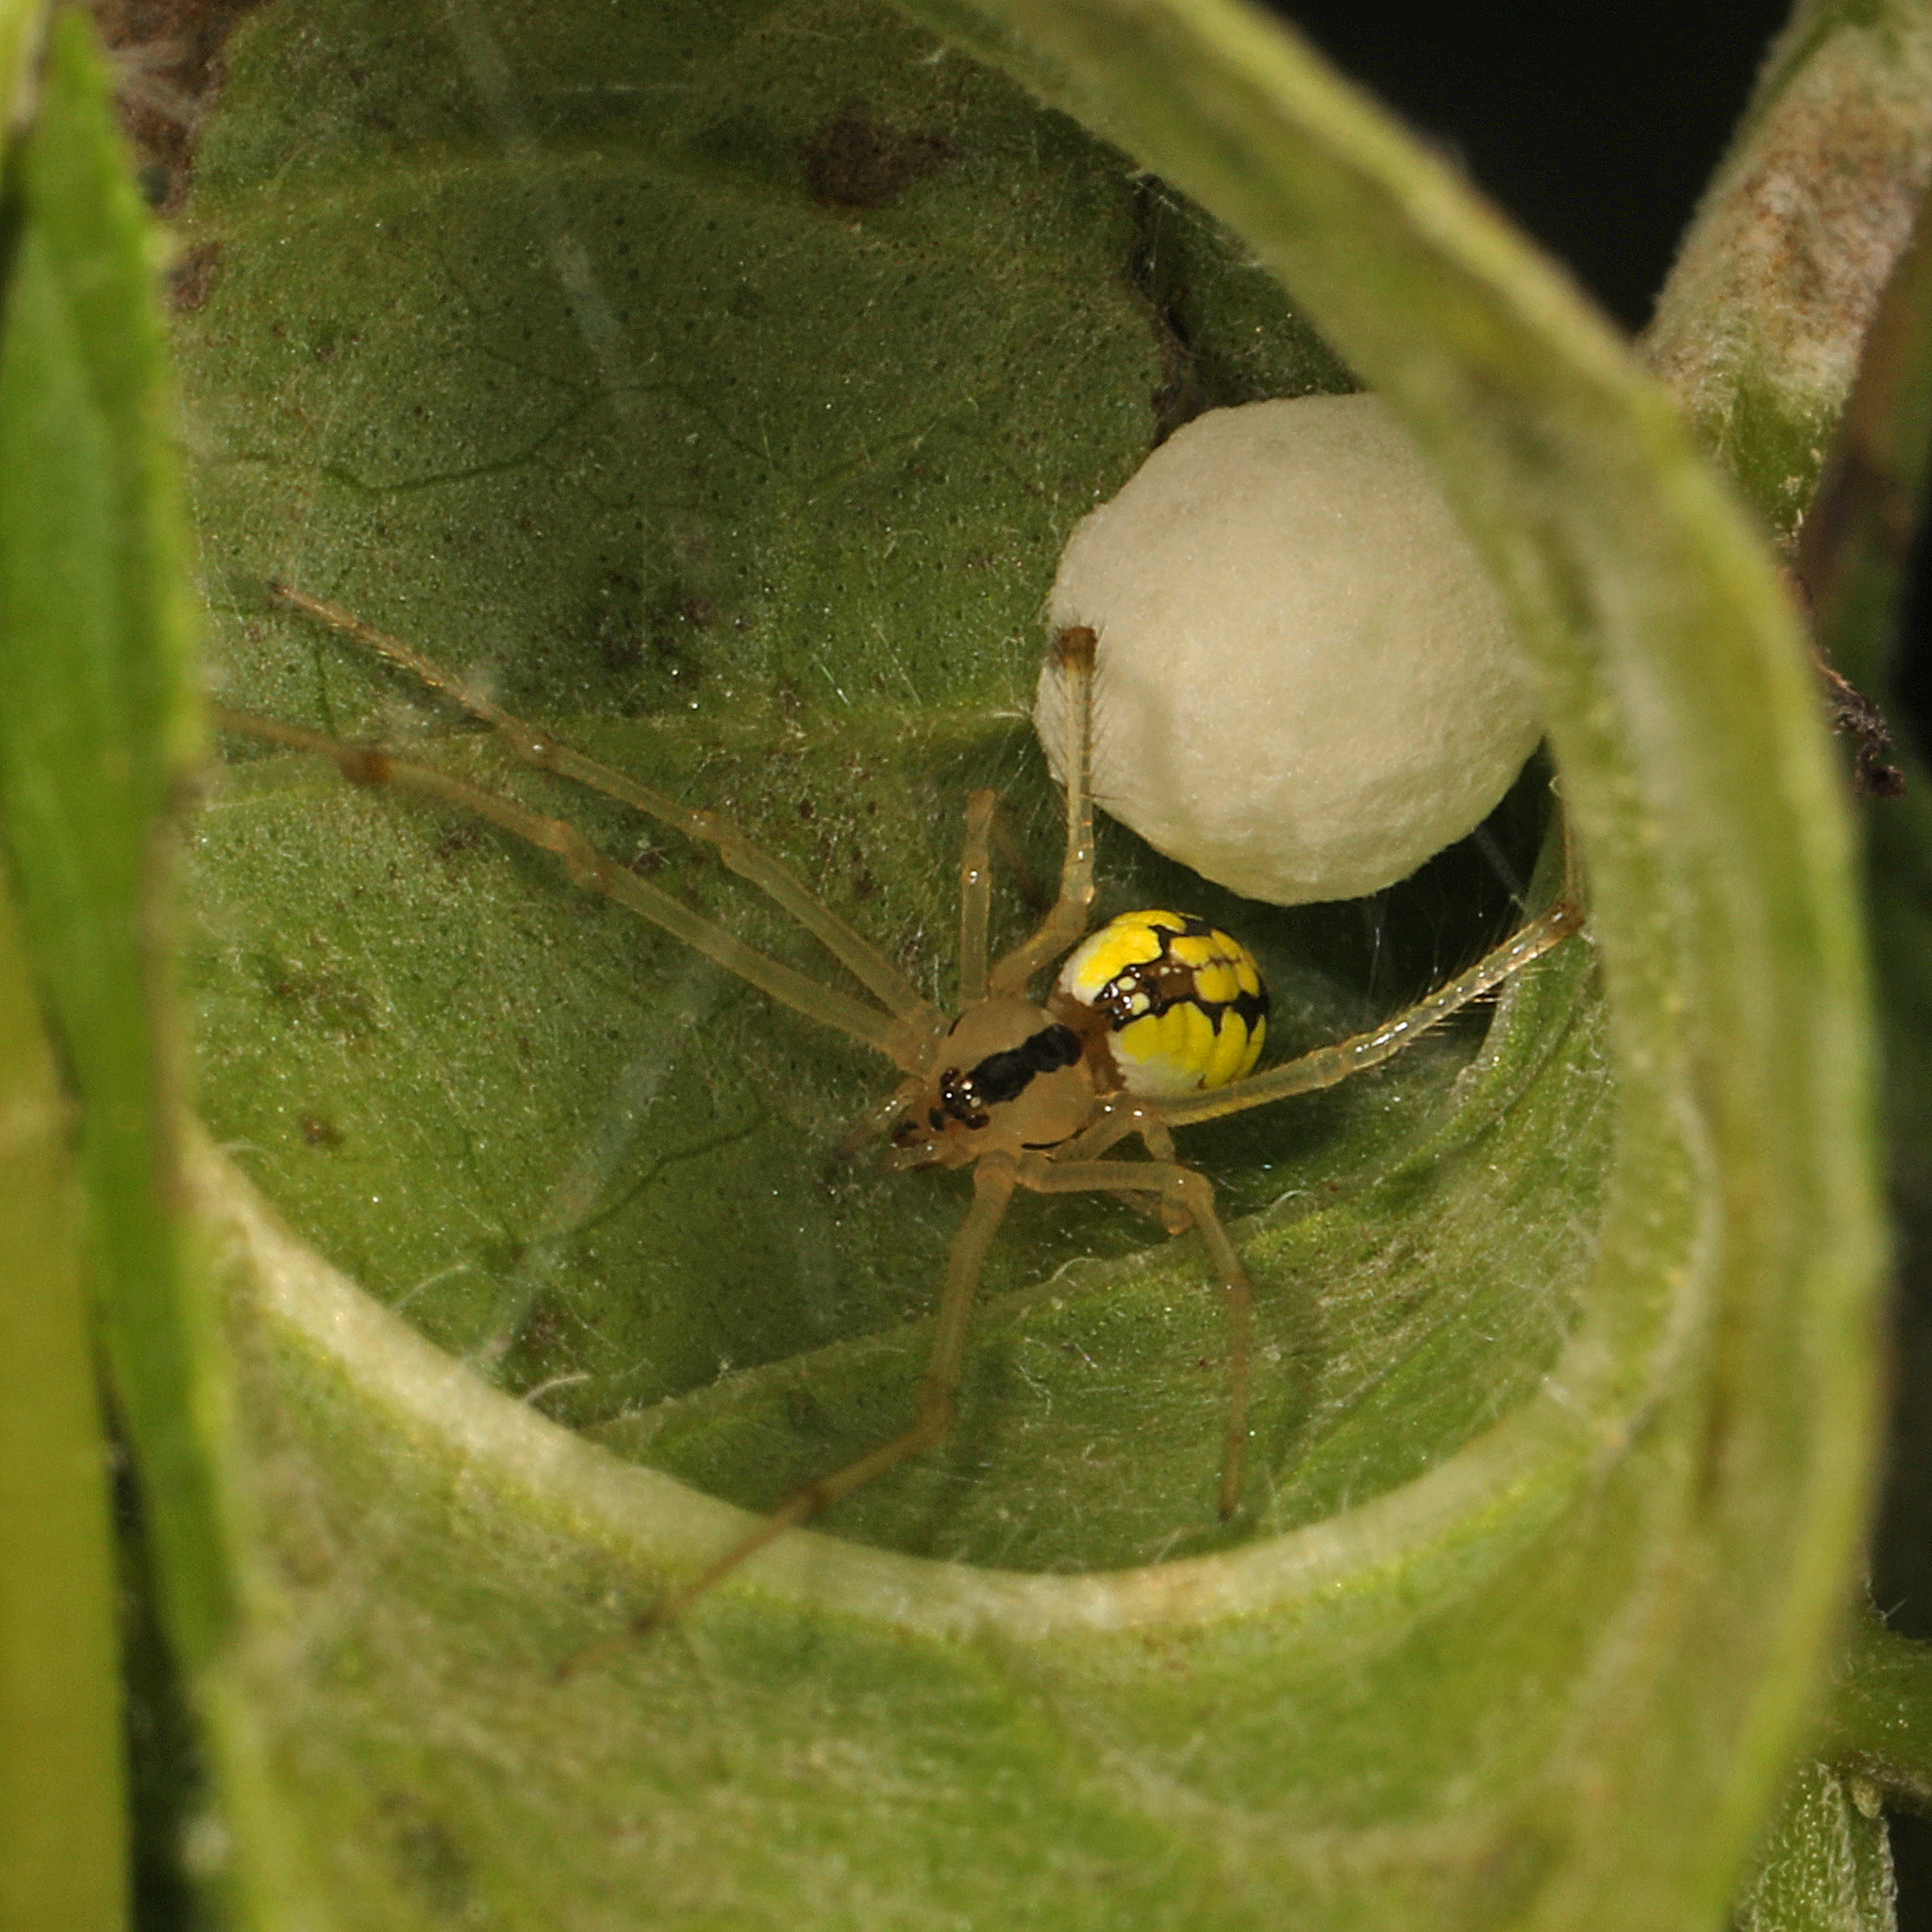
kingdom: Animalia
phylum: Arthropoda
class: Arachnida
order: Araneae
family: Theridiidae
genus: Phylloneta
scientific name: Phylloneta pictipes
